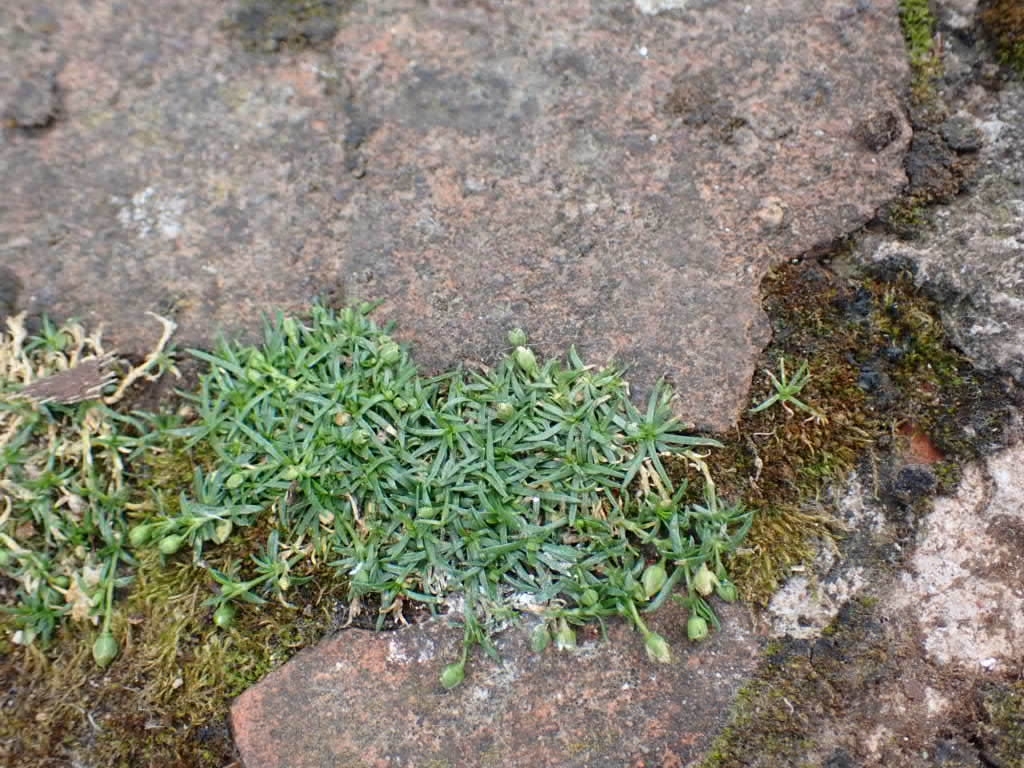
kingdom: Plantae
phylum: Tracheophyta
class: Magnoliopsida
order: Caryophyllales
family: Caryophyllaceae
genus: Sagina
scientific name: Sagina procumbens
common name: Procumbent pearlwort
